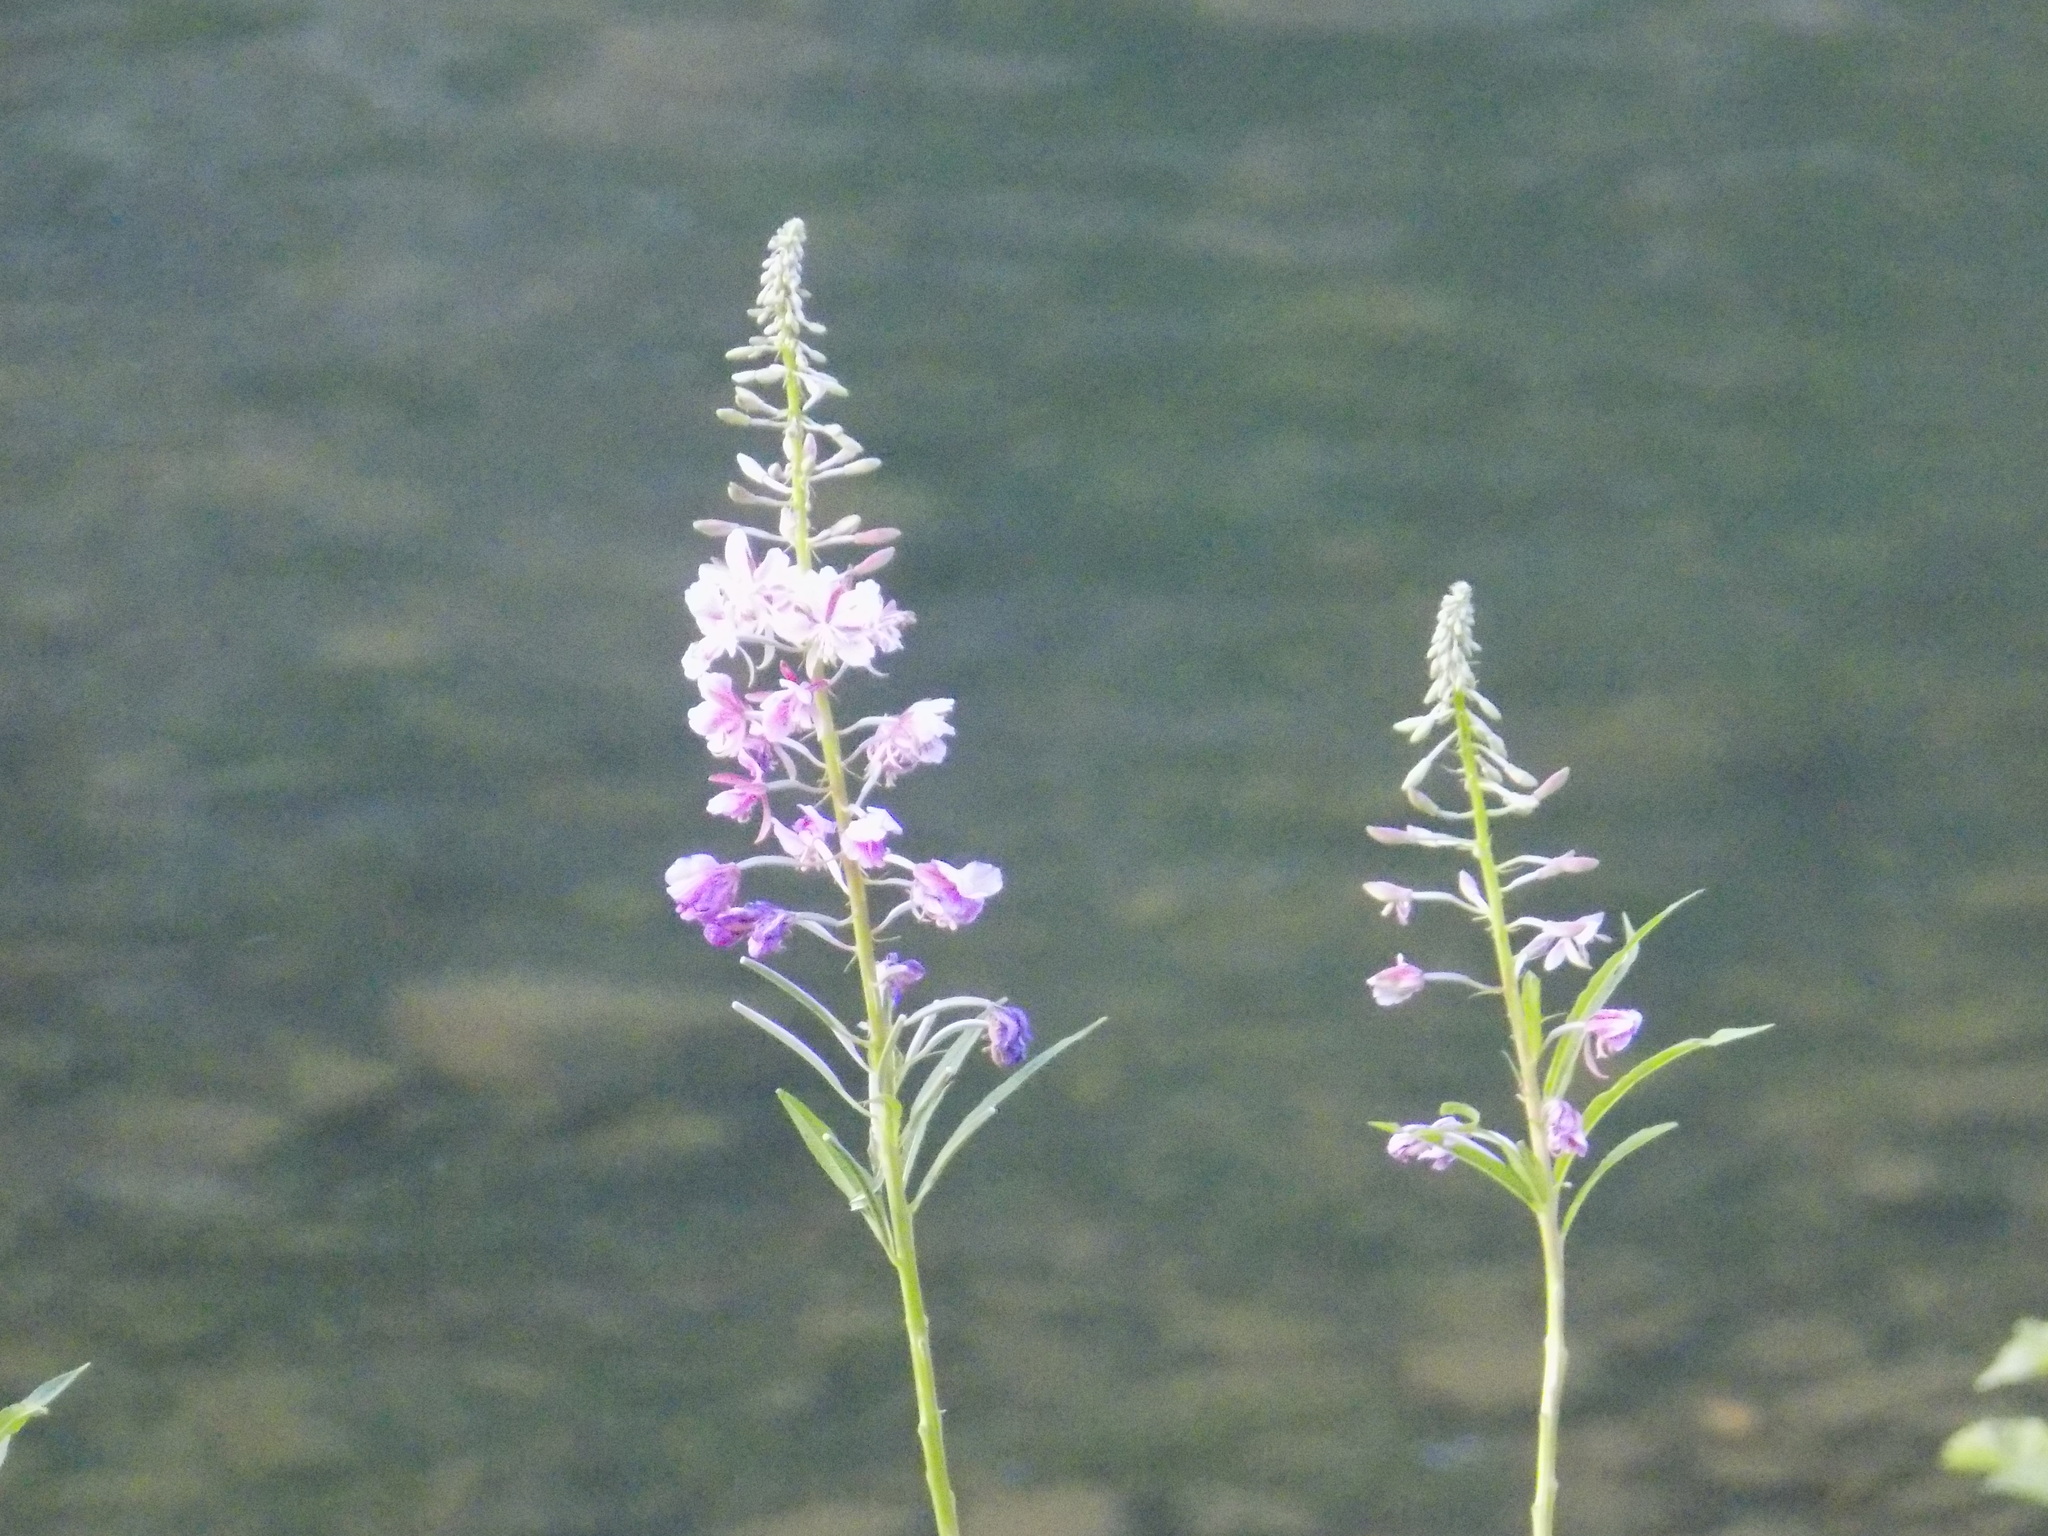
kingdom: Plantae
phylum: Tracheophyta
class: Magnoliopsida
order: Myrtales
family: Onagraceae
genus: Chamaenerion
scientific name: Chamaenerion angustifolium
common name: Fireweed
